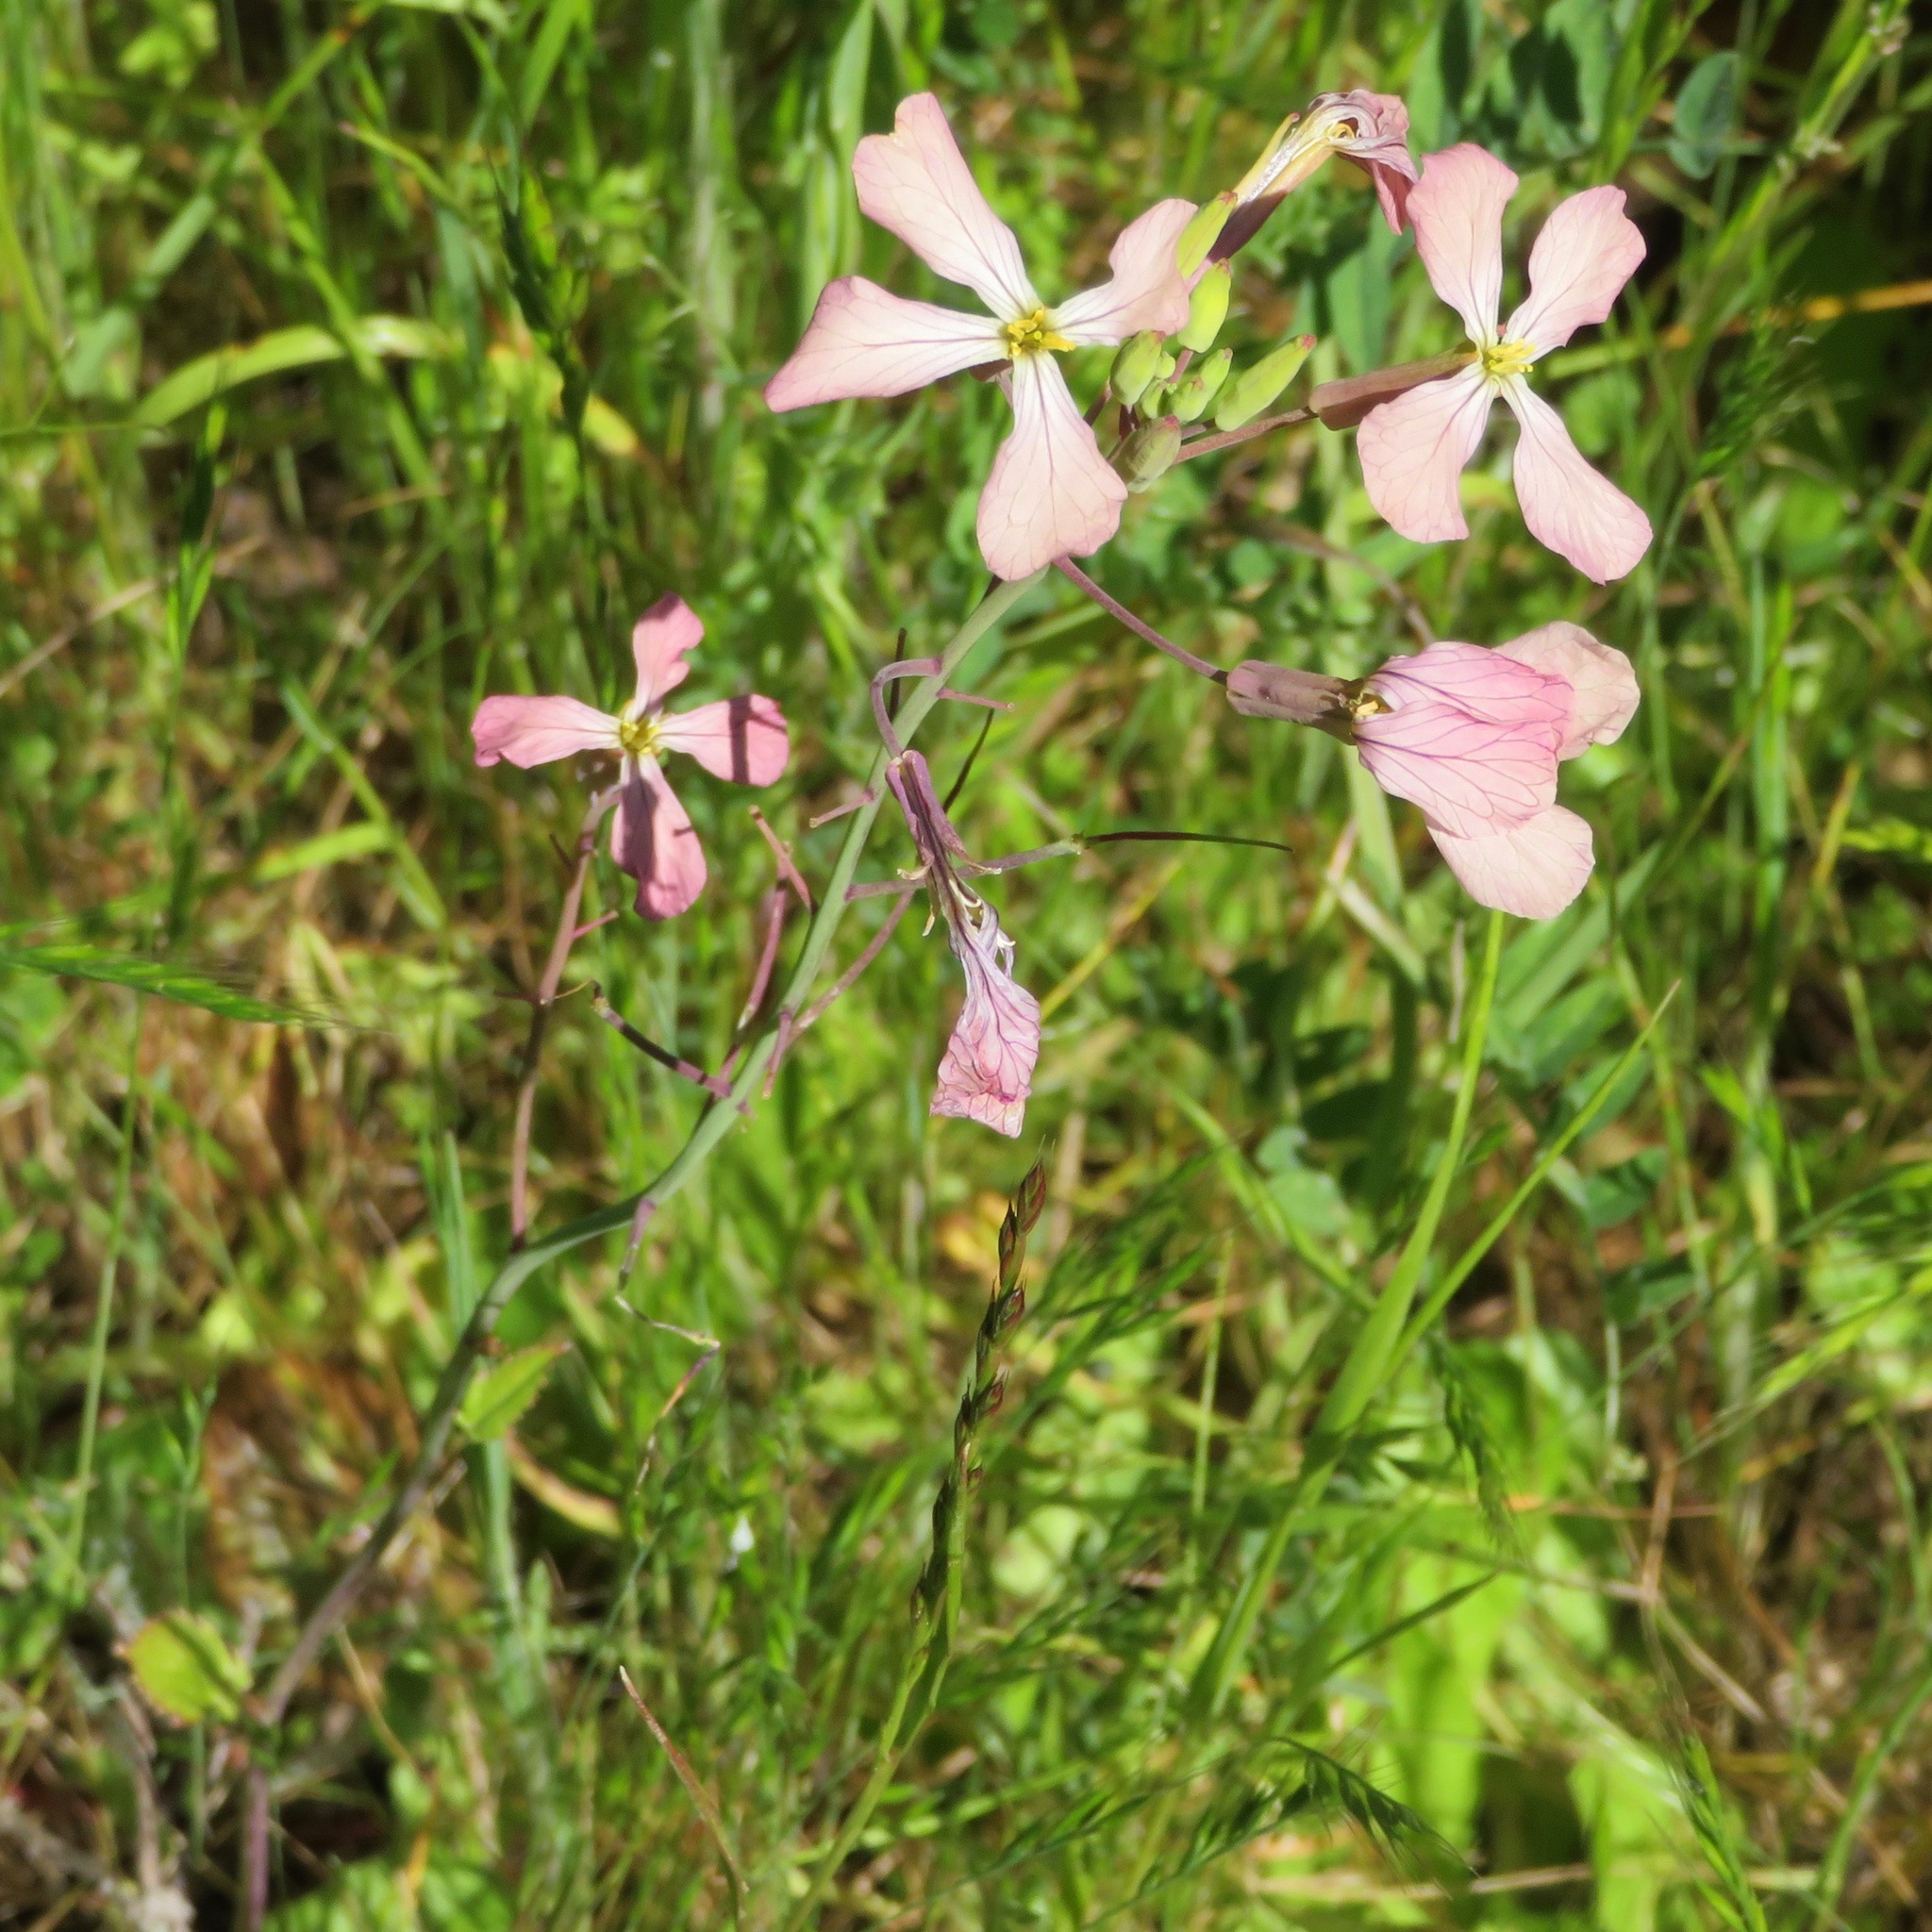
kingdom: Plantae
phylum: Tracheophyta
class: Magnoliopsida
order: Brassicales
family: Brassicaceae
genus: Raphanus
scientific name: Raphanus sativus
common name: Cultivated radish
